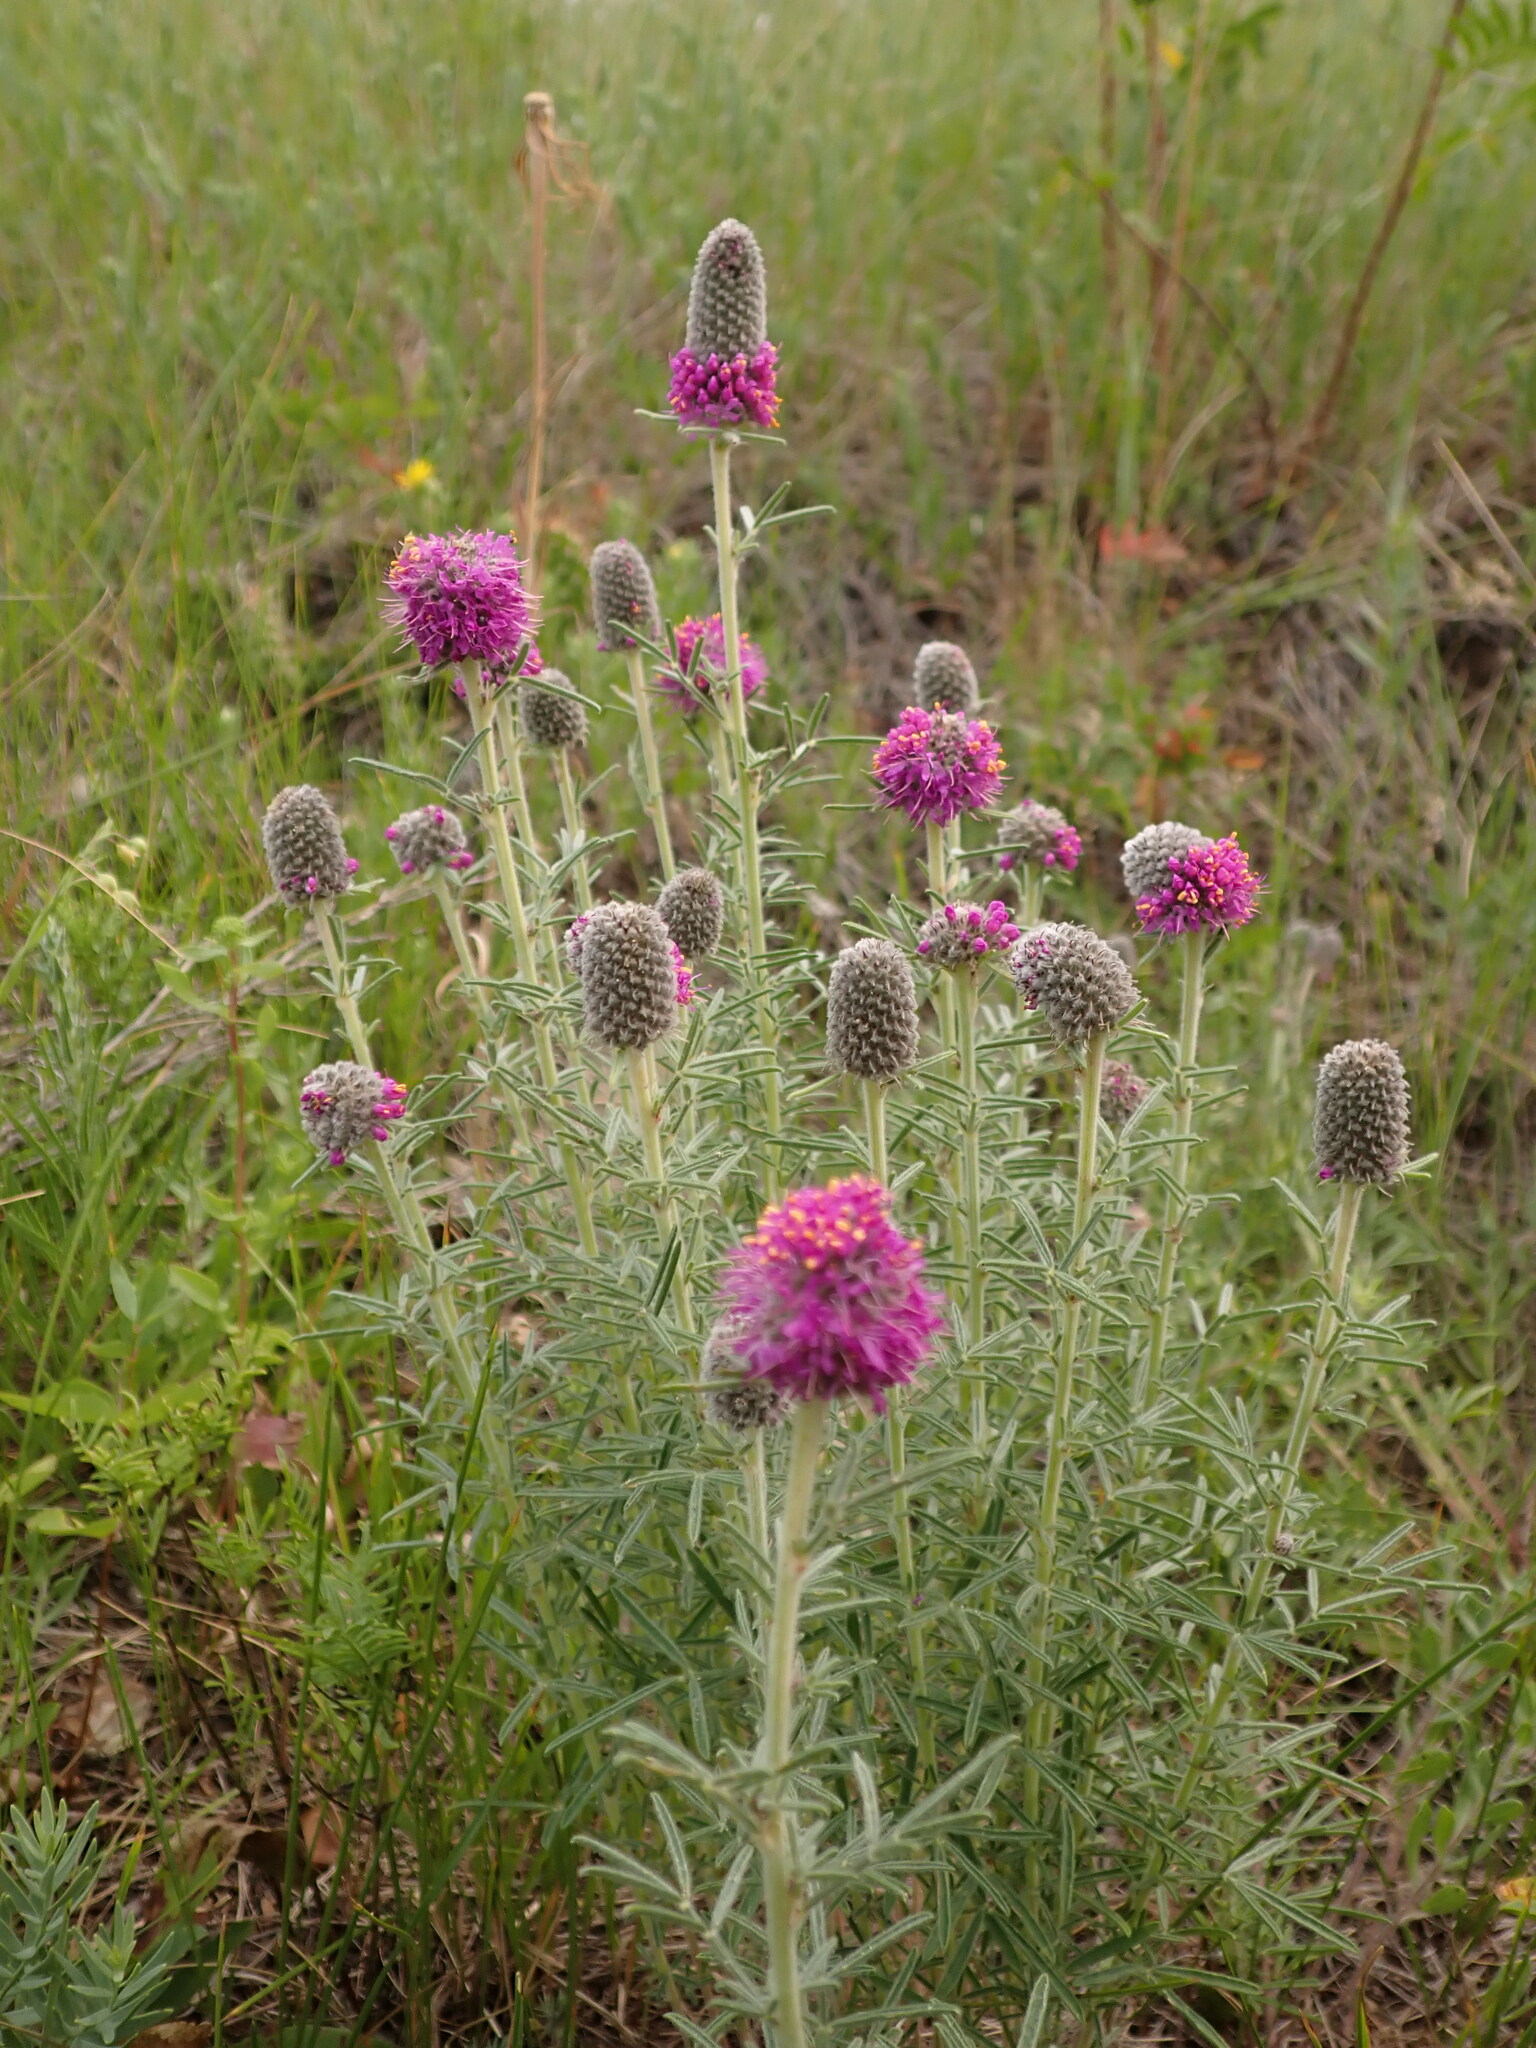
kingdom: Plantae
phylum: Tracheophyta
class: Magnoliopsida
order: Fabales
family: Fabaceae
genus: Dalea
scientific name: Dalea purpurea
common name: Purple prairie-clover
